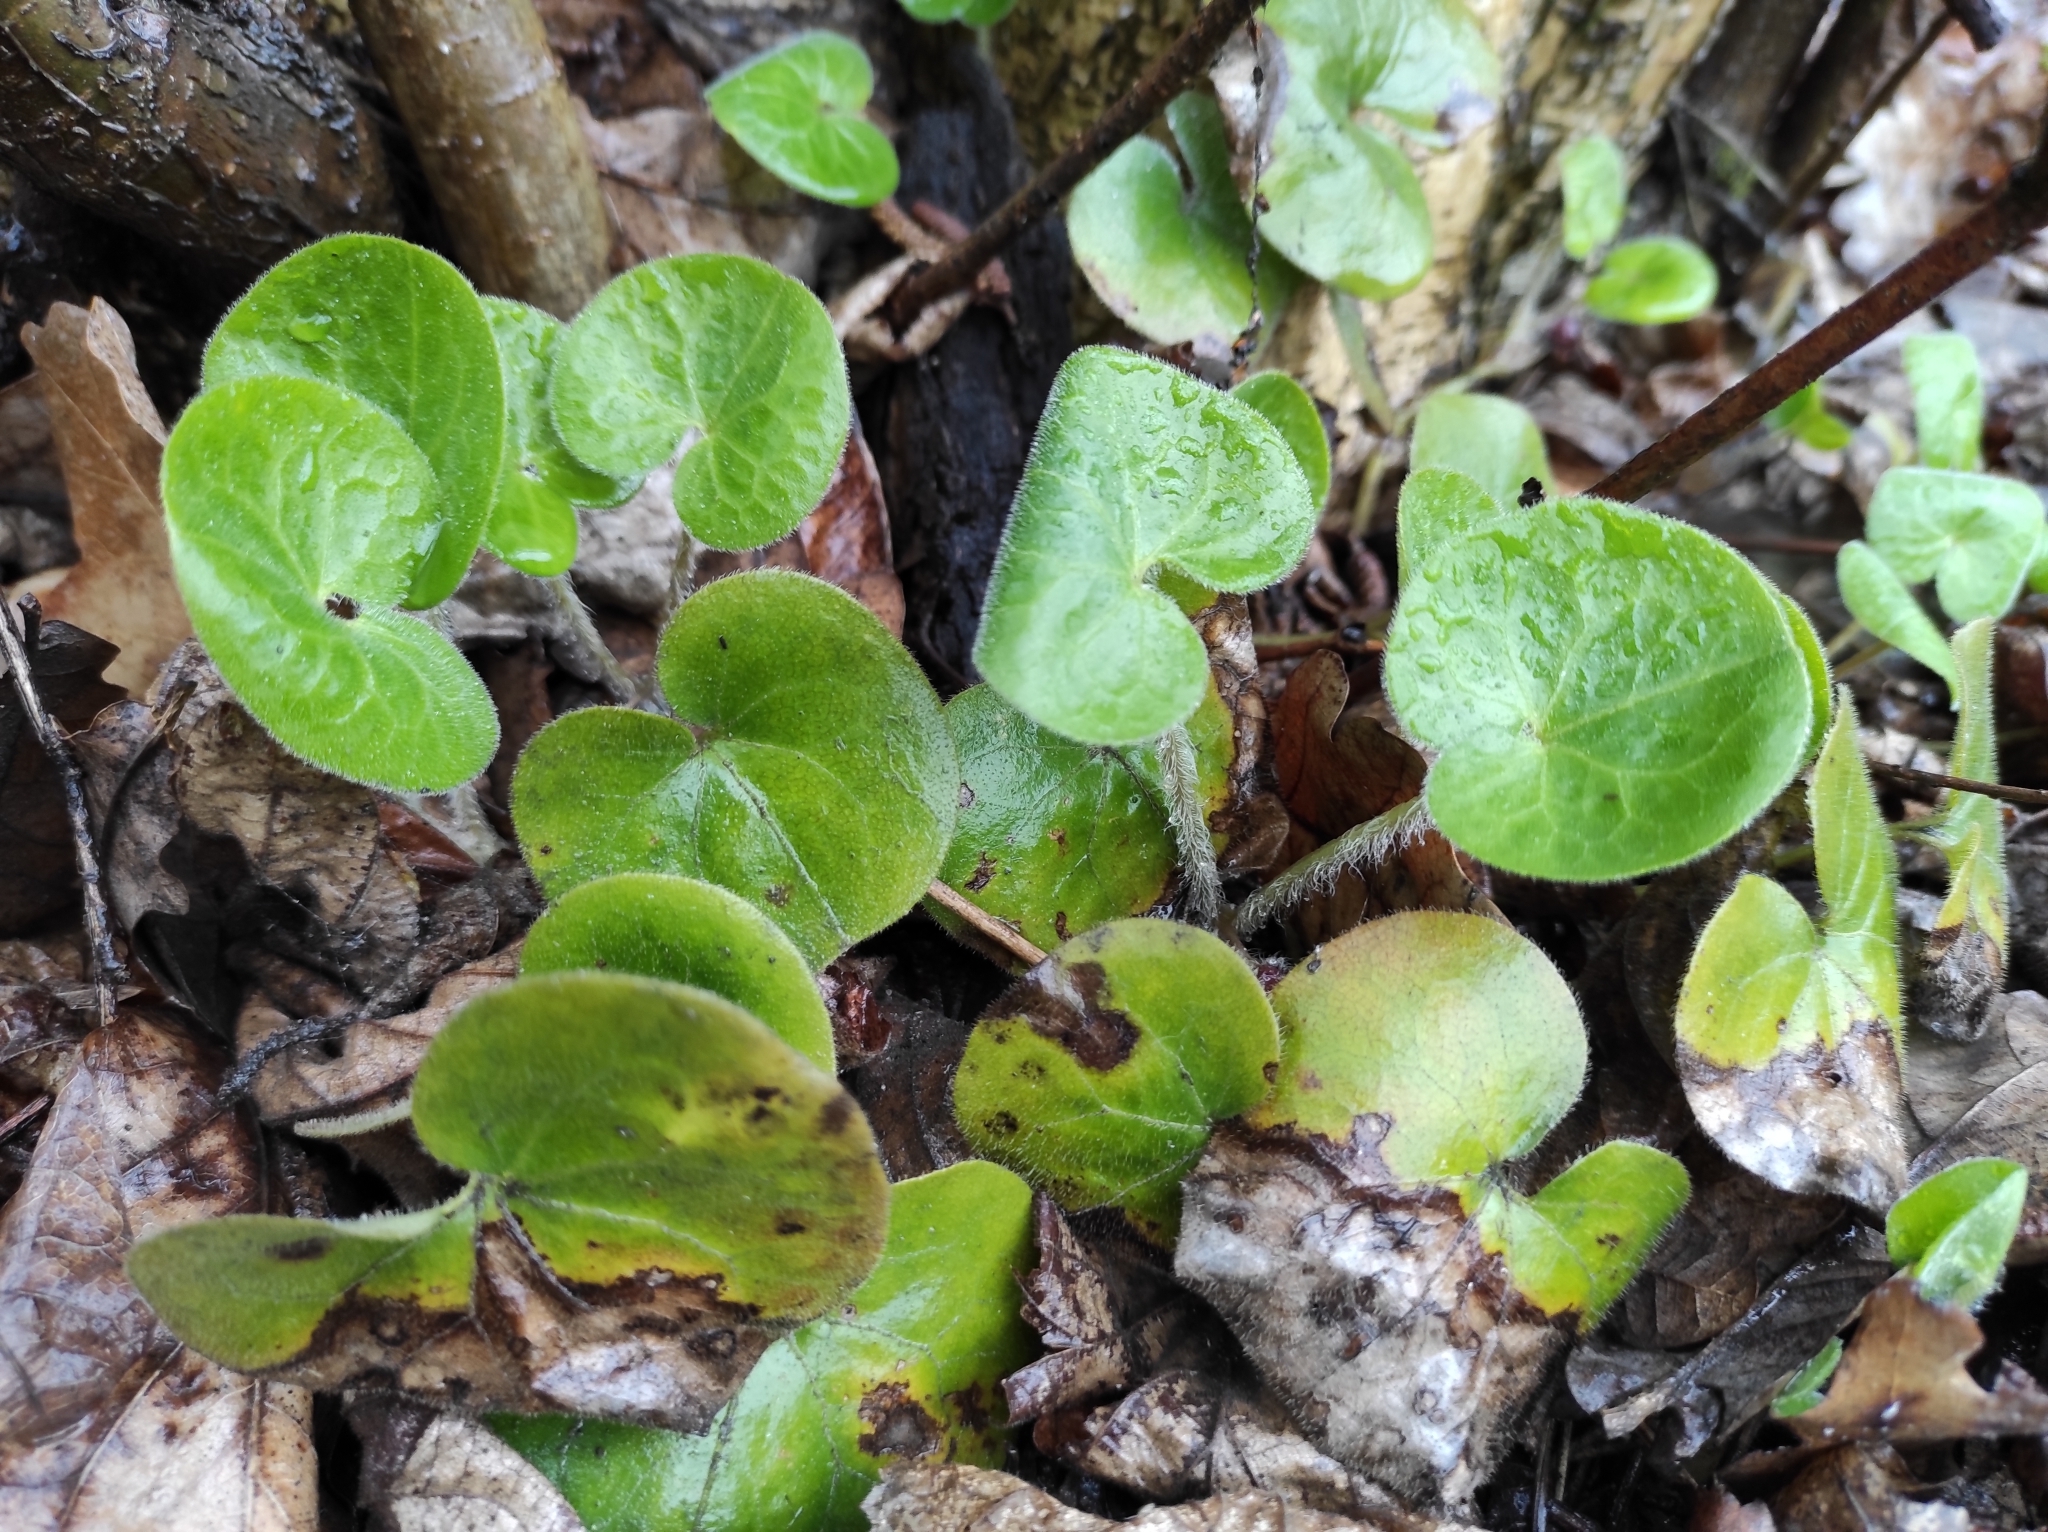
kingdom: Plantae
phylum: Tracheophyta
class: Magnoliopsida
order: Piperales
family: Aristolochiaceae
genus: Asarum
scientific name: Asarum europaeum
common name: Asarabacca
